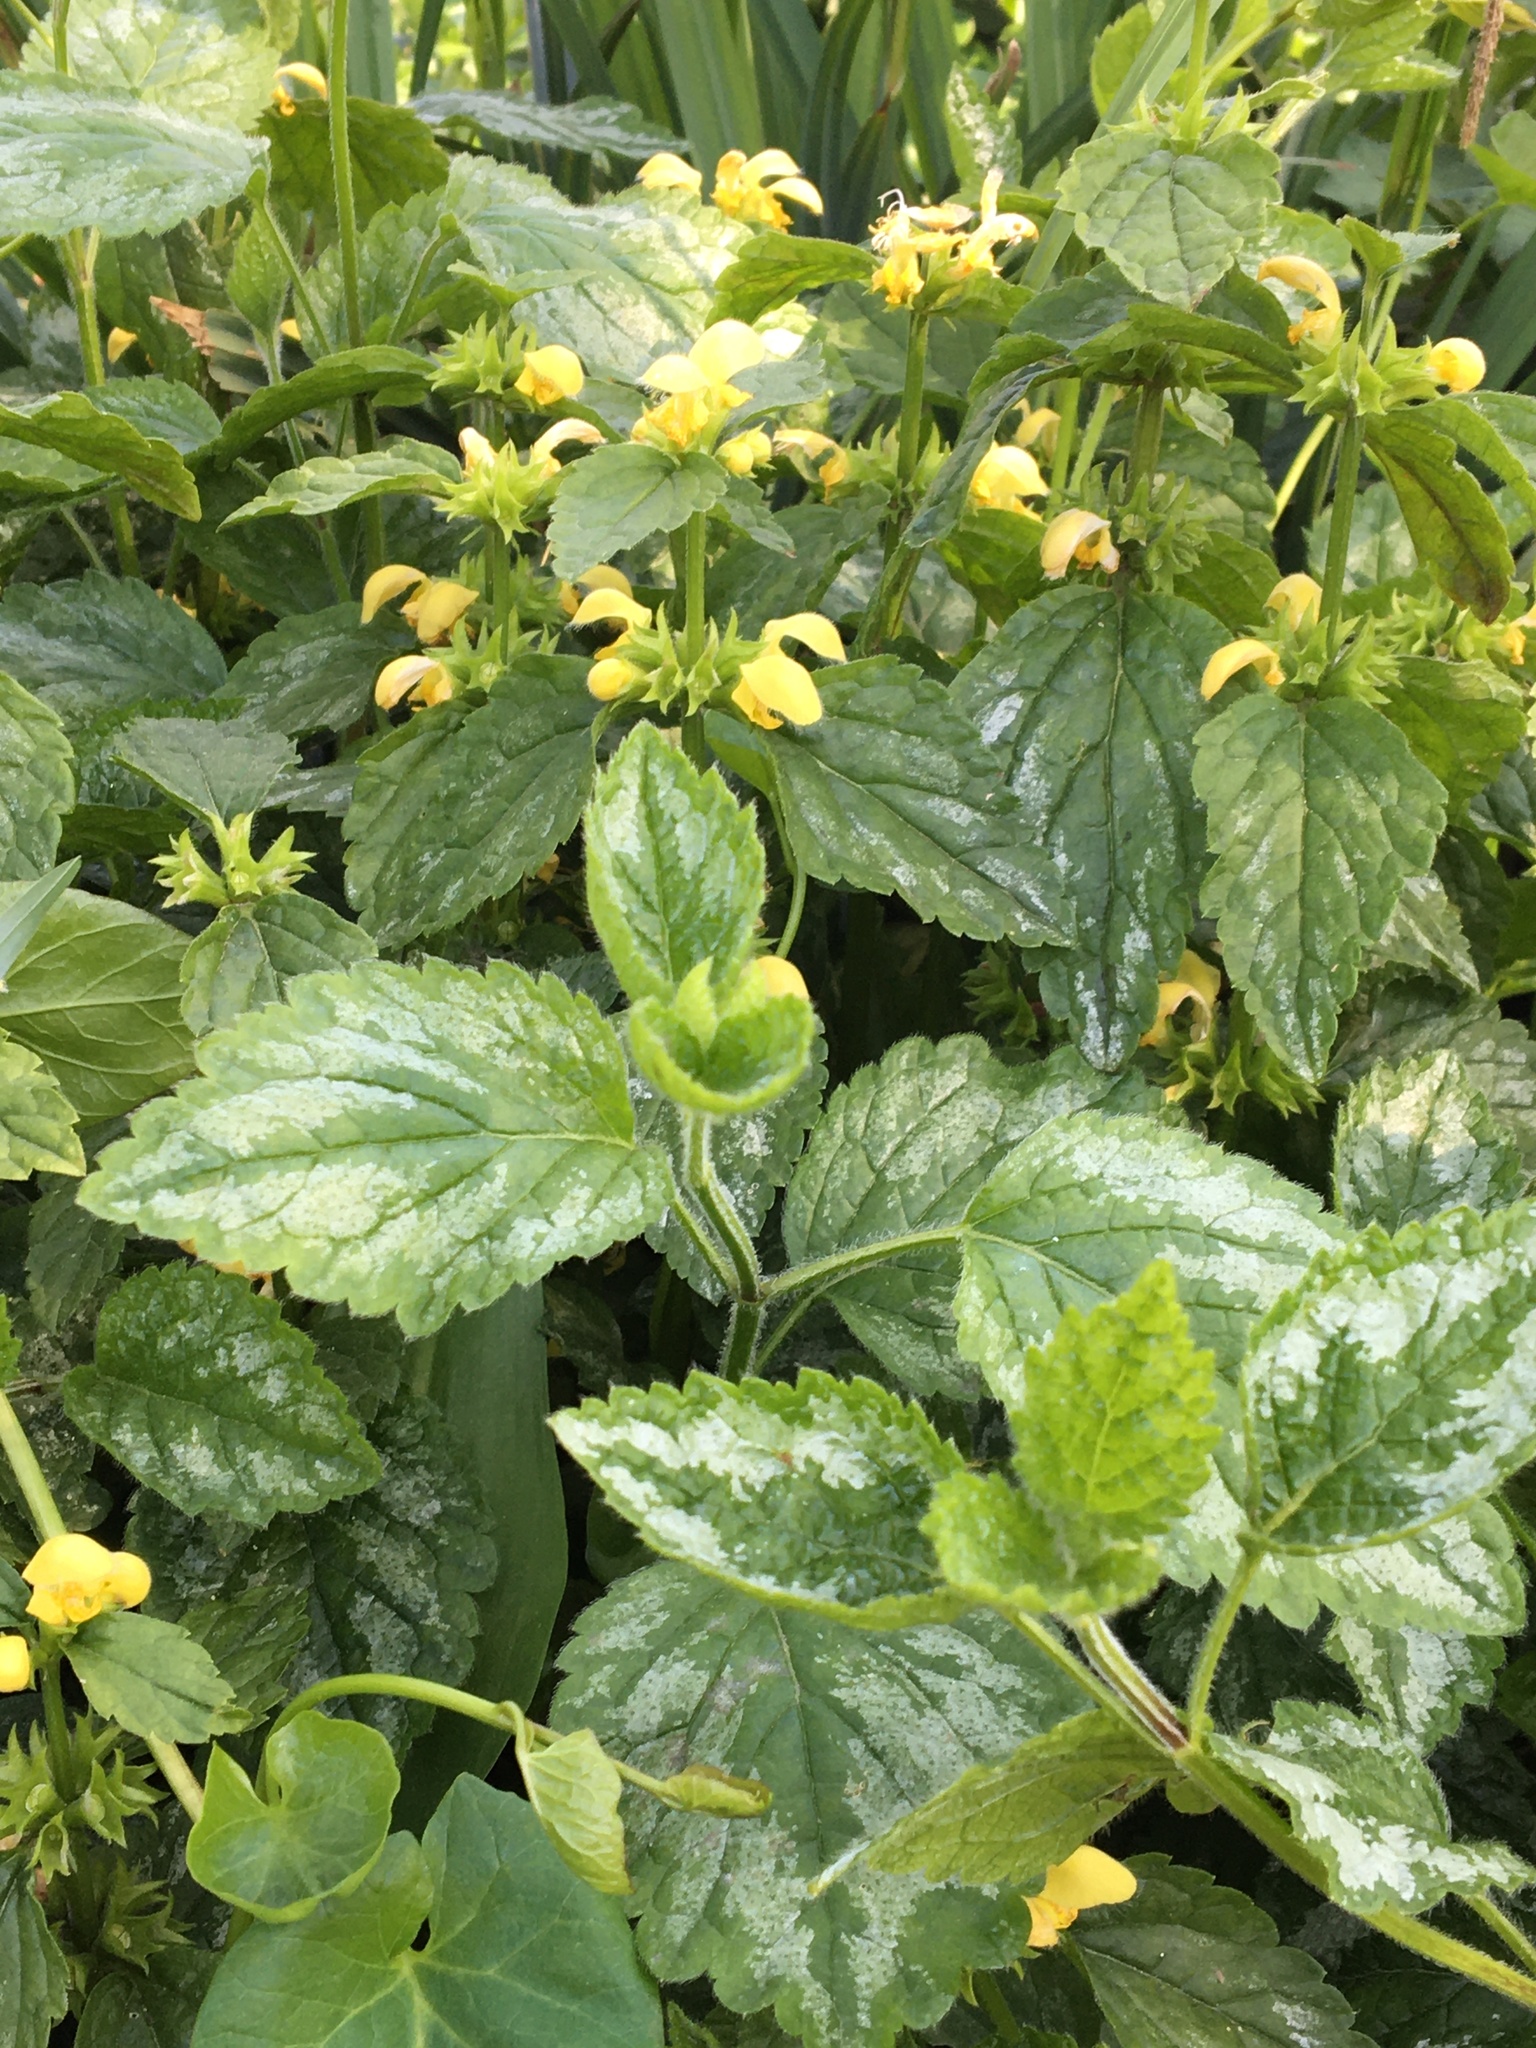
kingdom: Plantae
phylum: Tracheophyta
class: Magnoliopsida
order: Lamiales
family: Lamiaceae
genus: Lamium
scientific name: Lamium galeobdolon
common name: Yellow archangel
